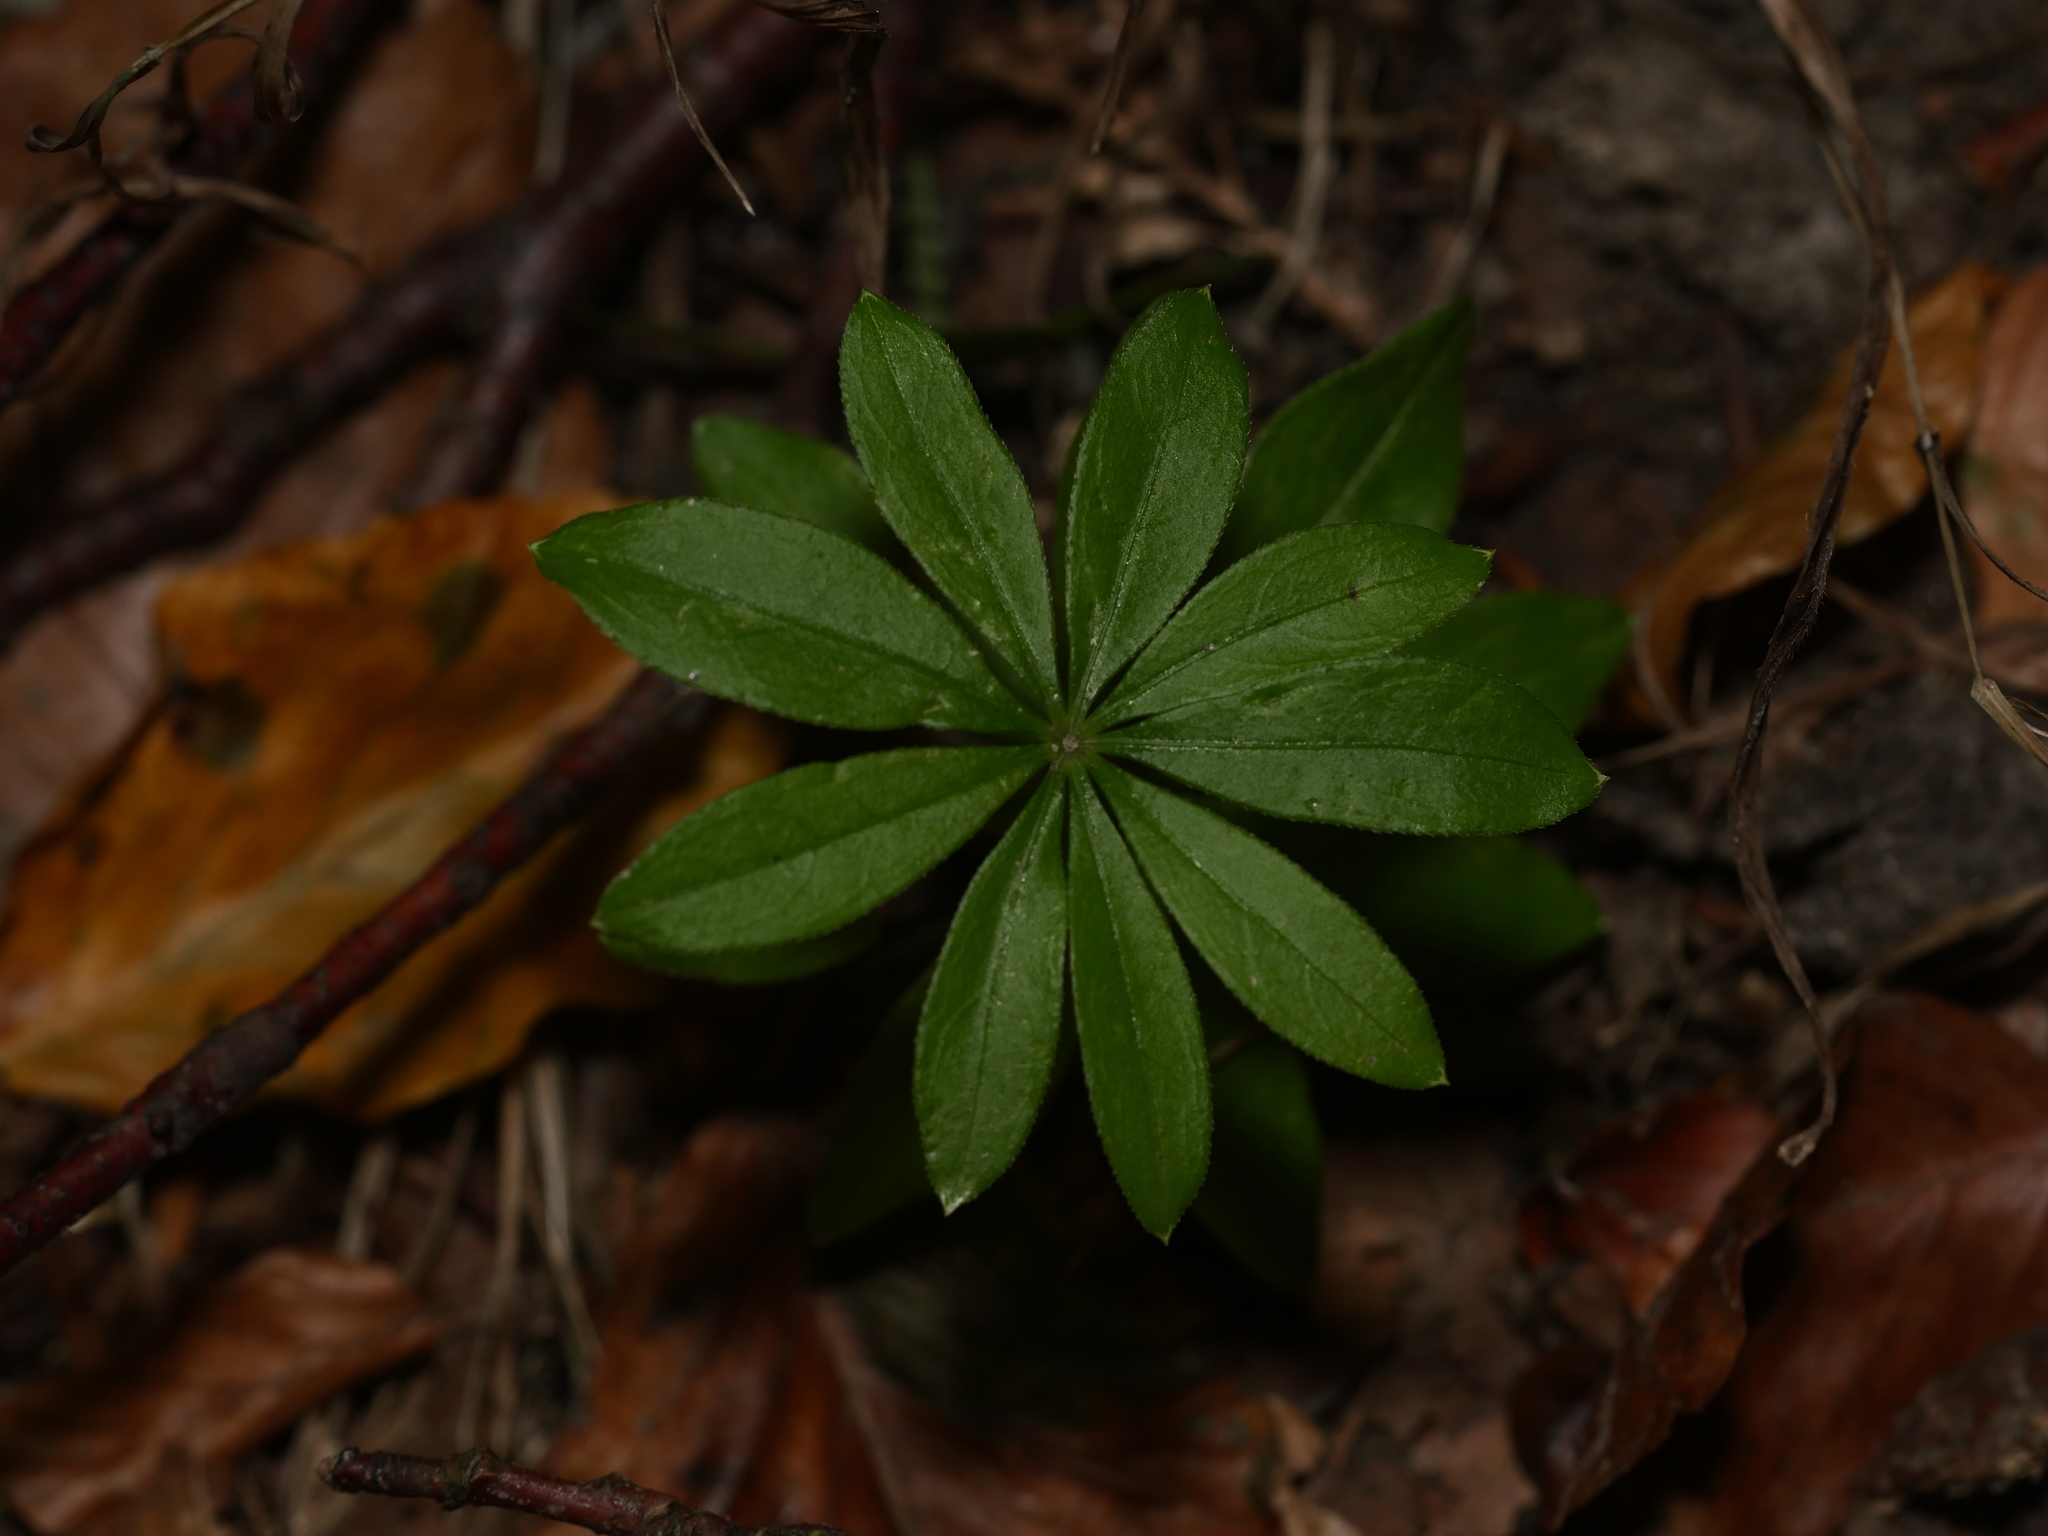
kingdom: Plantae
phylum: Tracheophyta
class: Magnoliopsida
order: Gentianales
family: Rubiaceae
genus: Galium
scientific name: Galium odoratum
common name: Sweet woodruff
